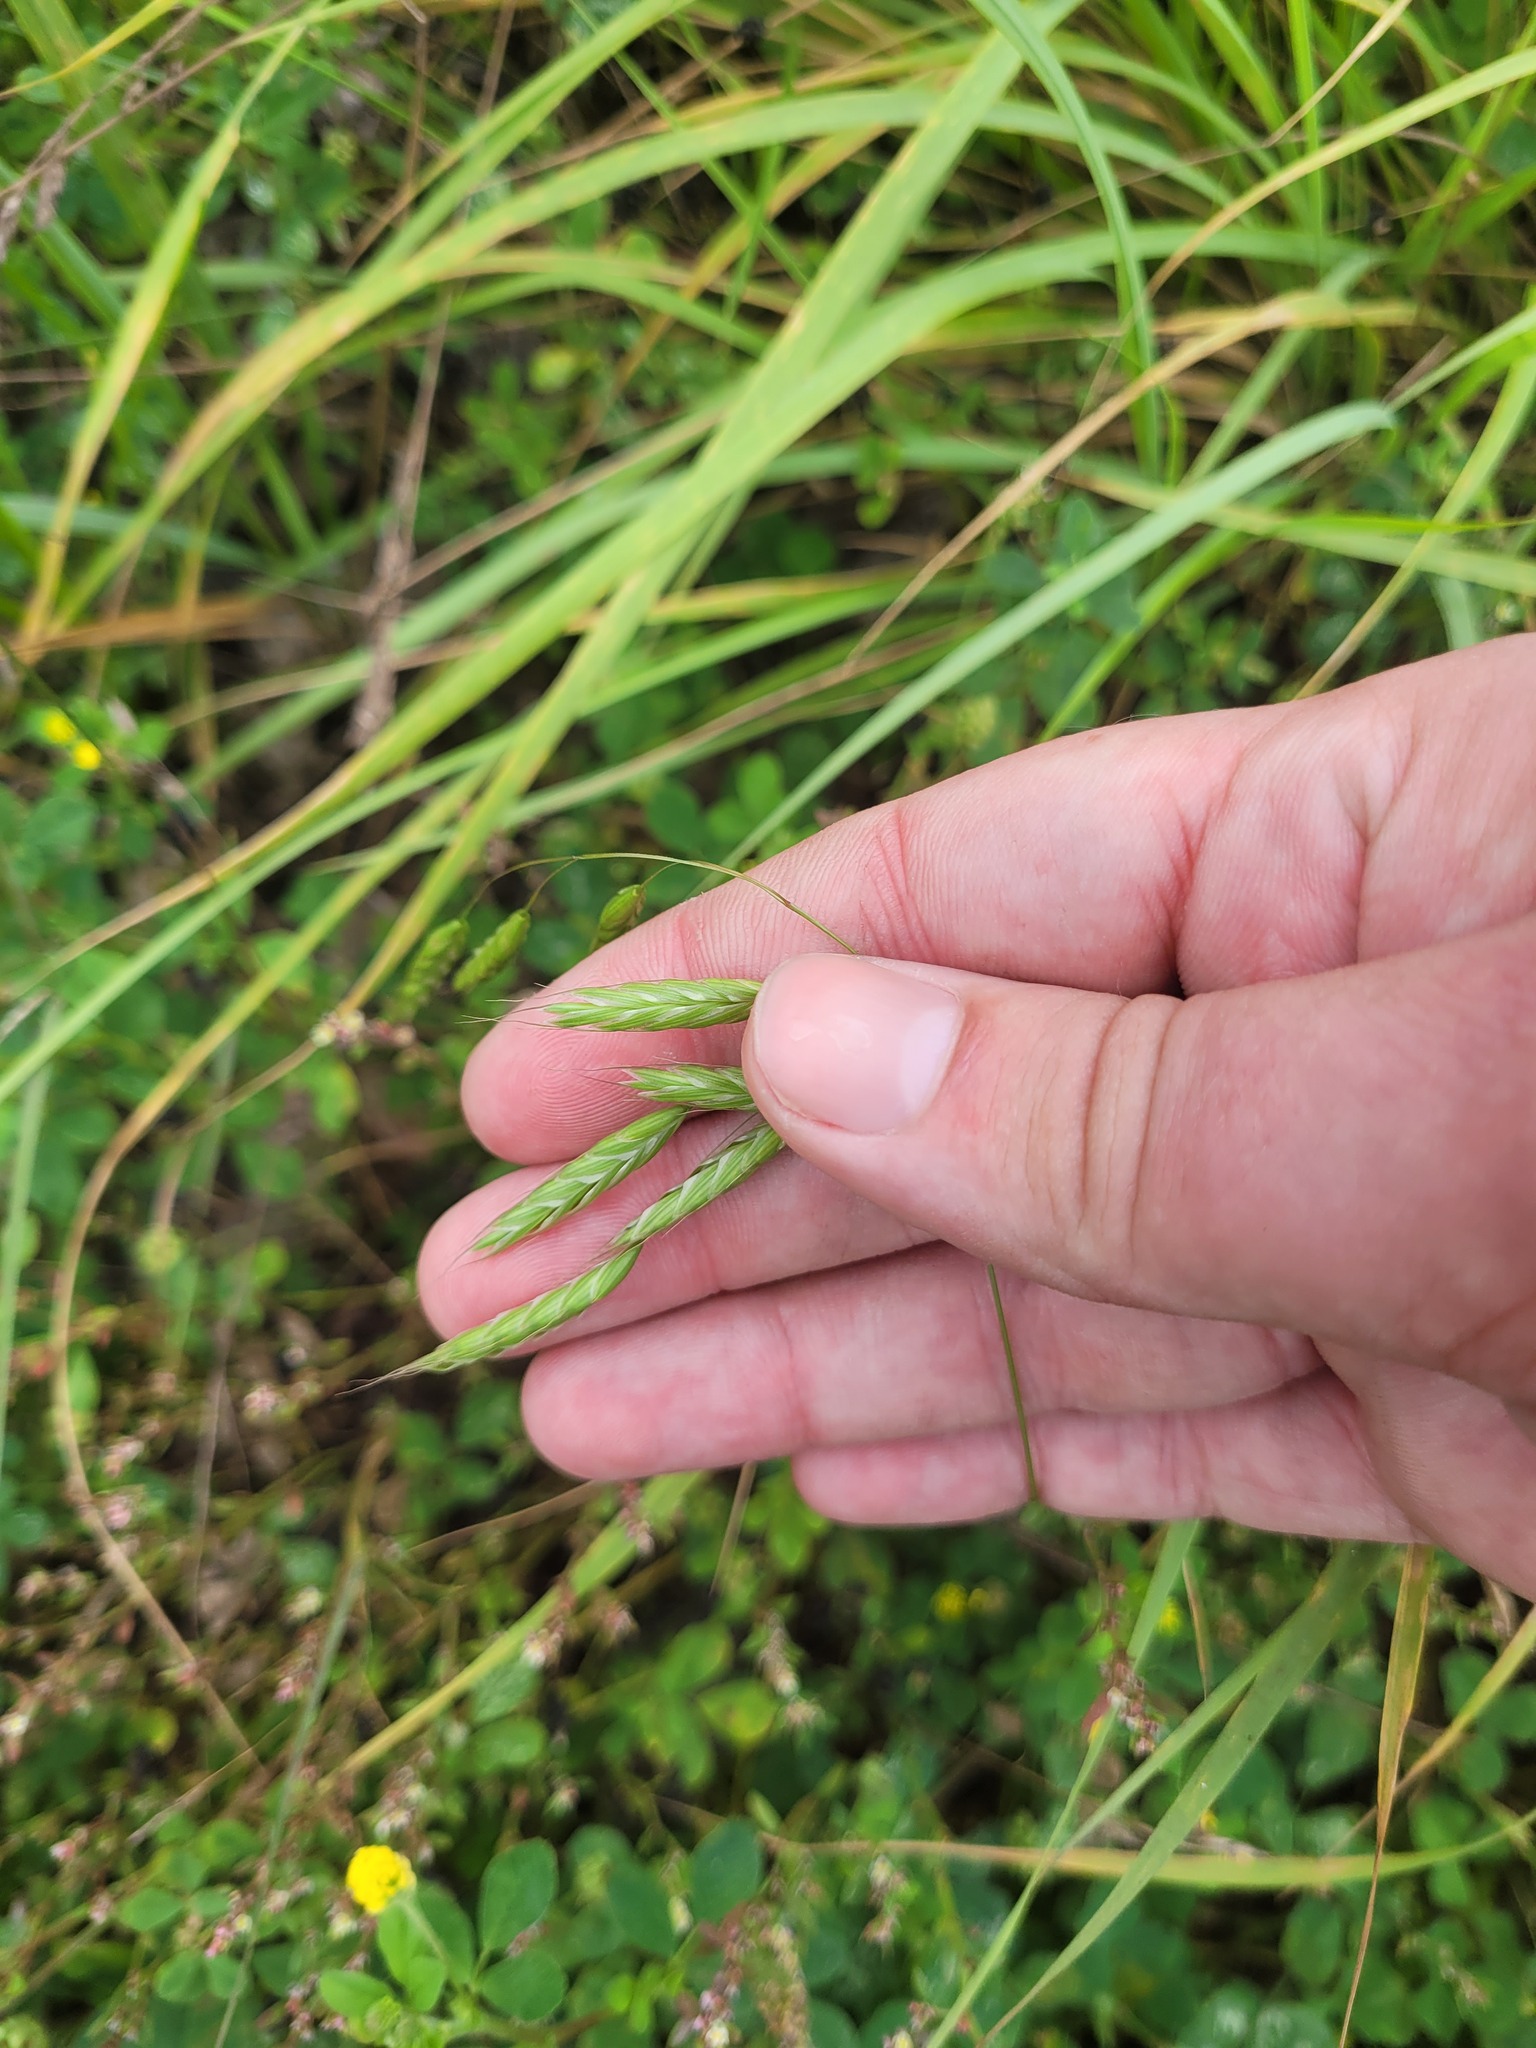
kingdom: Plantae
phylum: Tracheophyta
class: Liliopsida
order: Poales
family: Poaceae
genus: Bromus
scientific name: Bromus squarrosus
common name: Corn brome
